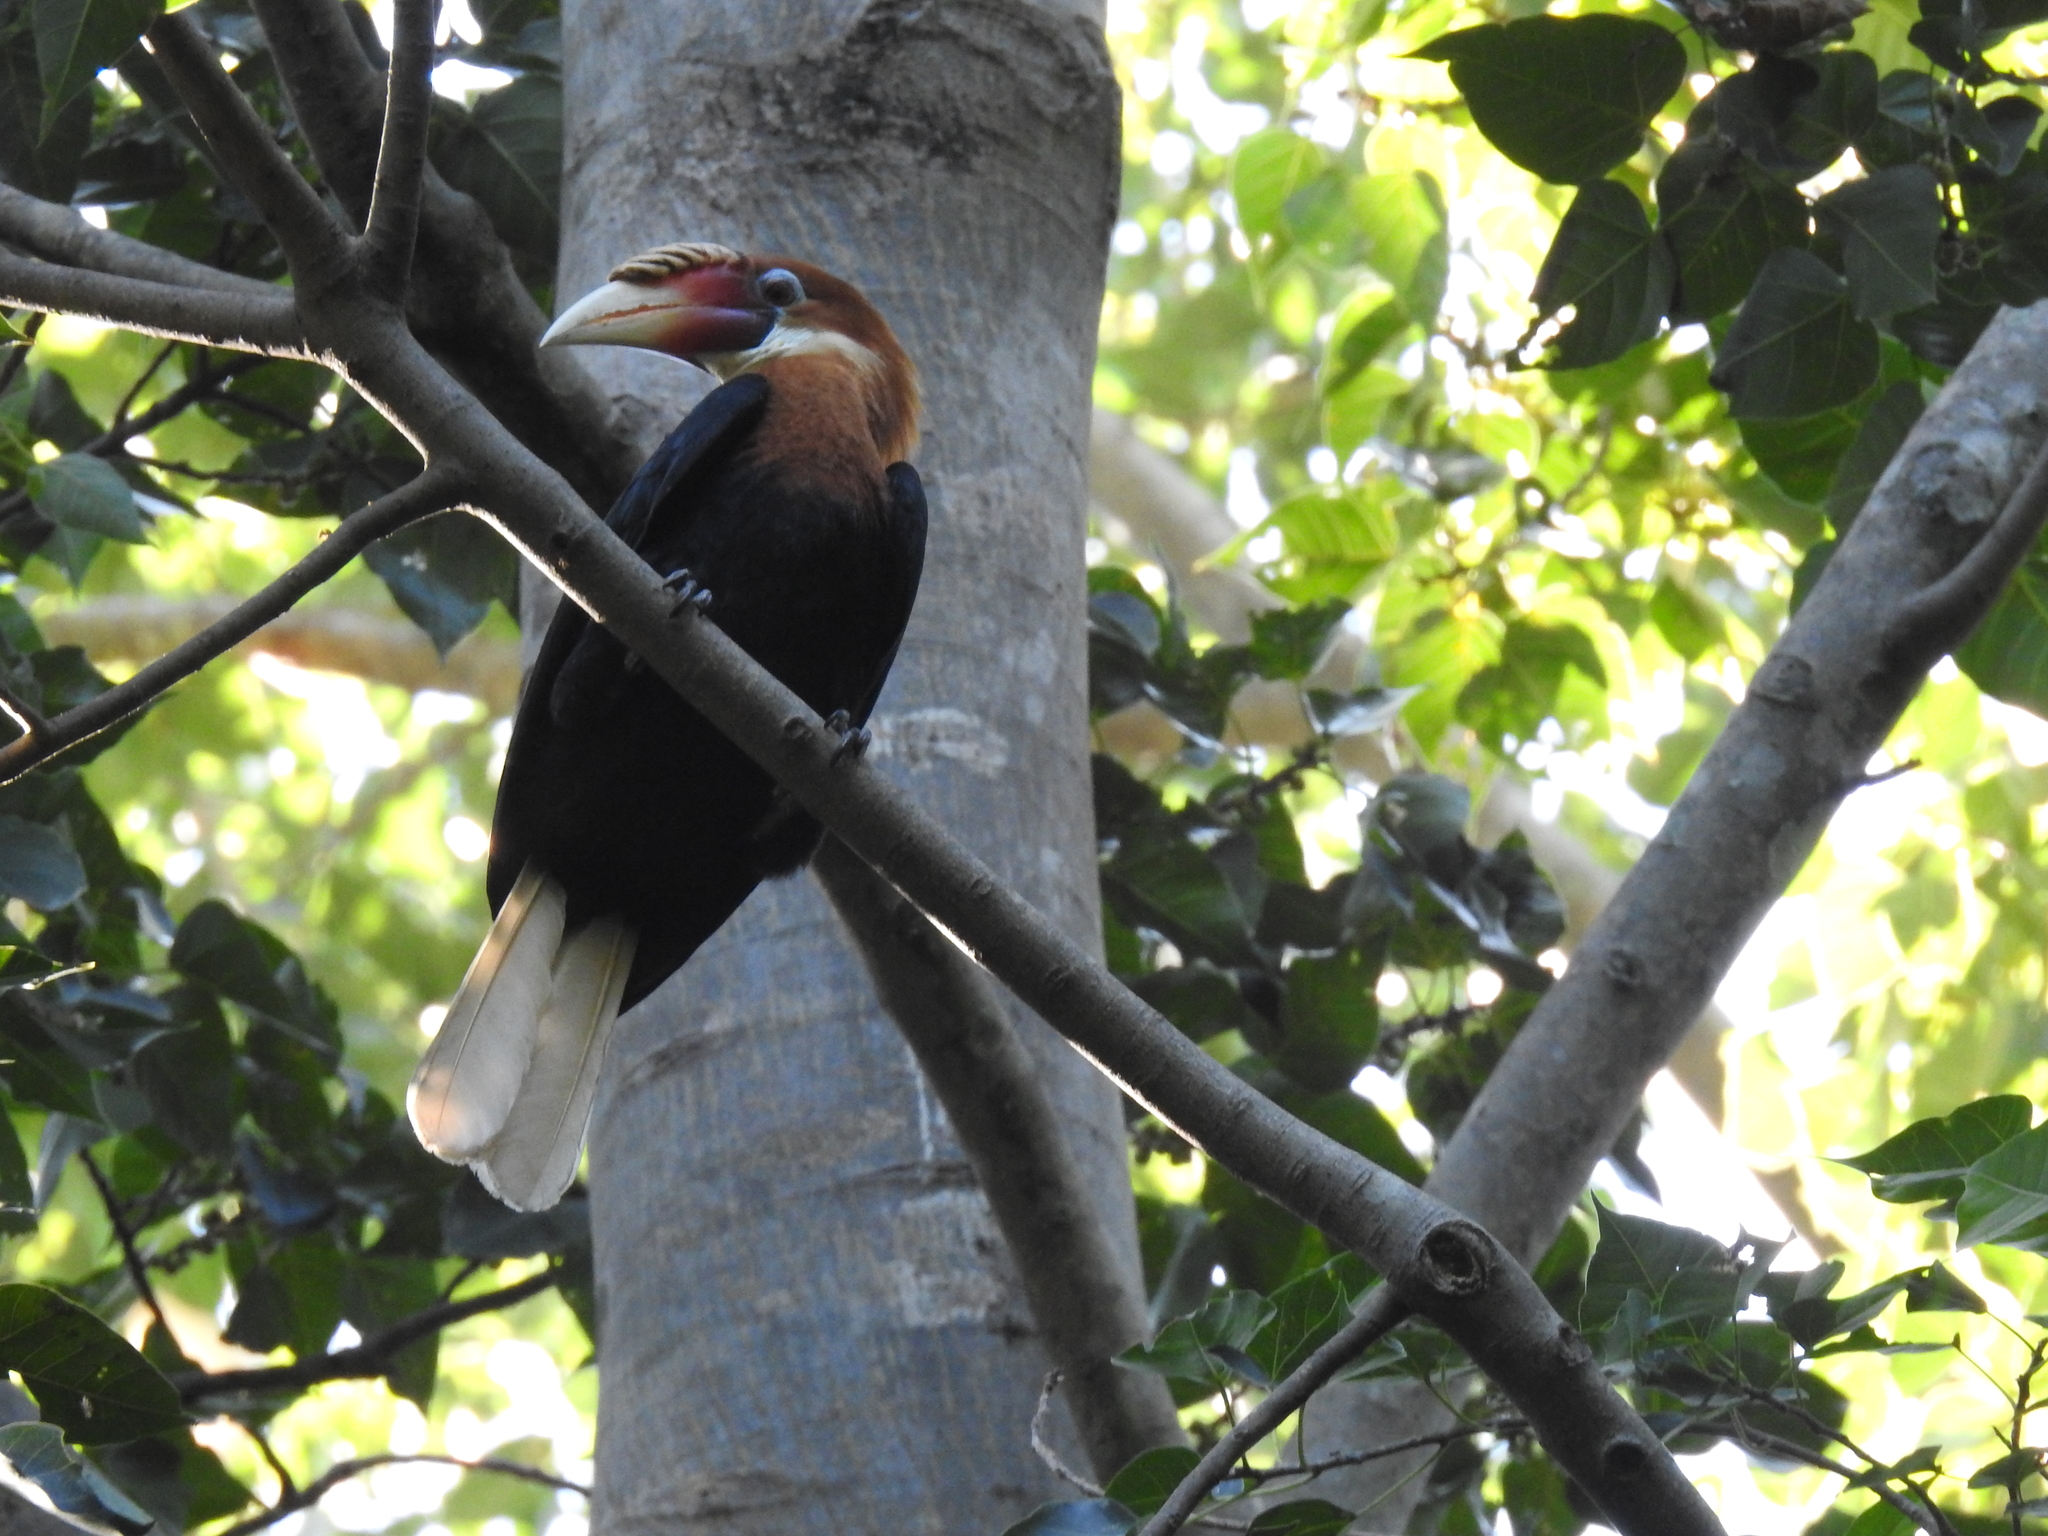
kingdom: Animalia
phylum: Chordata
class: Aves
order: Bucerotiformes
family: Bucerotidae
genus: Rhyticeros
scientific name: Rhyticeros narcondami
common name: Narcondam hornbill
